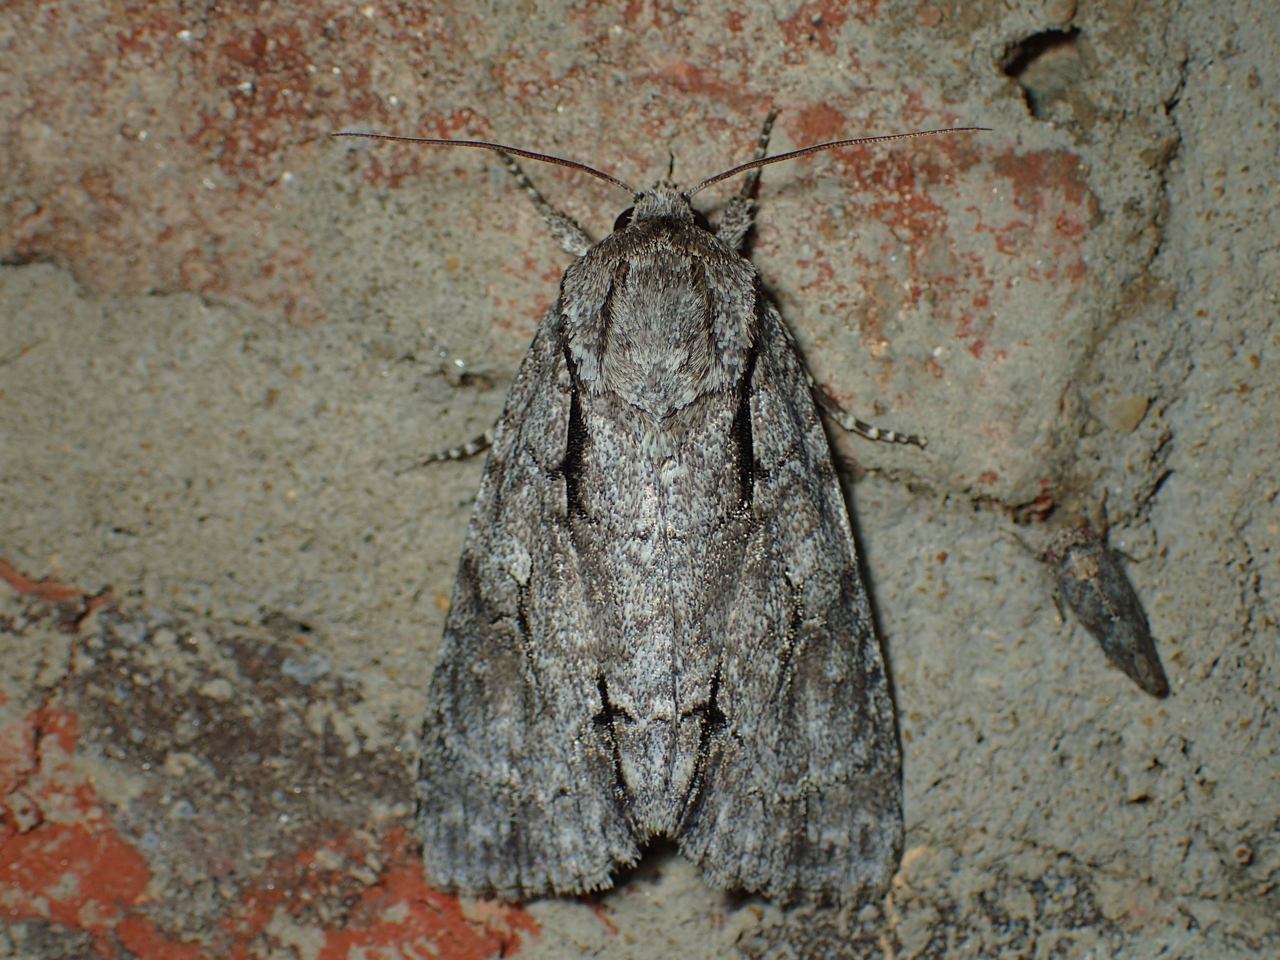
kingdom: Animalia
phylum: Arthropoda
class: Insecta
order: Lepidoptera
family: Noctuidae
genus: Acronicta
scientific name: Acronicta hasta
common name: Cherry dagger
